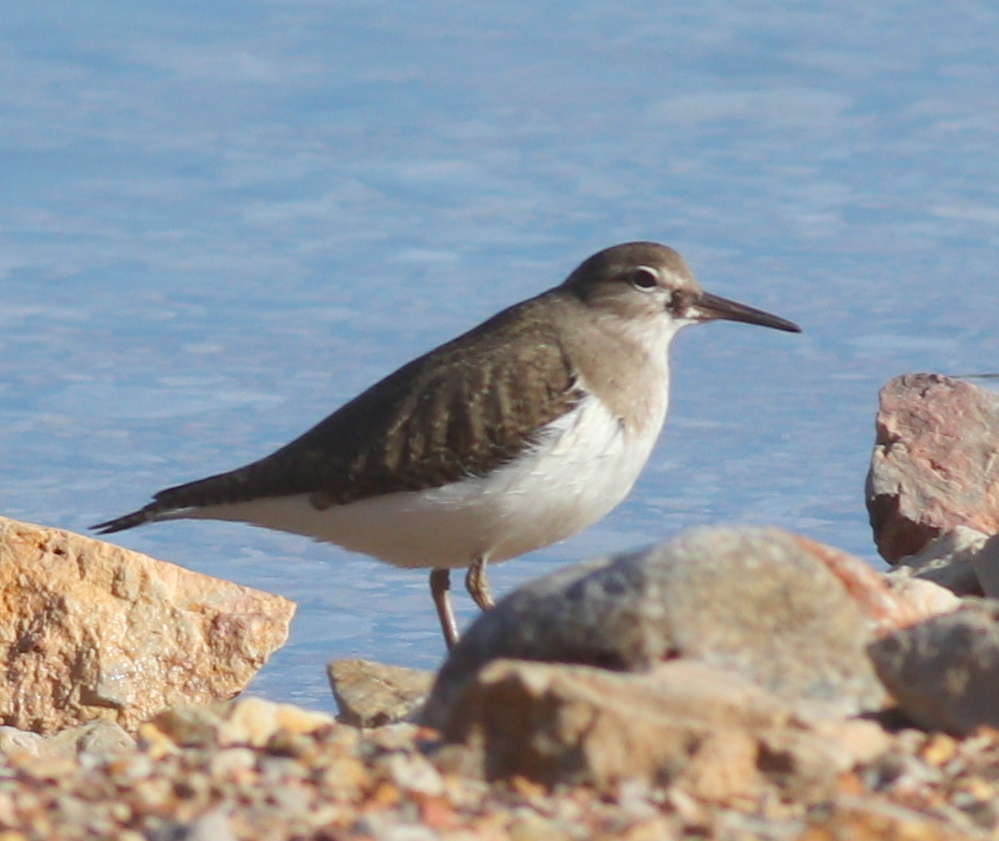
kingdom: Animalia
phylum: Chordata
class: Aves
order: Charadriiformes
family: Scolopacidae
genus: Actitis
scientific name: Actitis hypoleucos
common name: Common sandpiper
